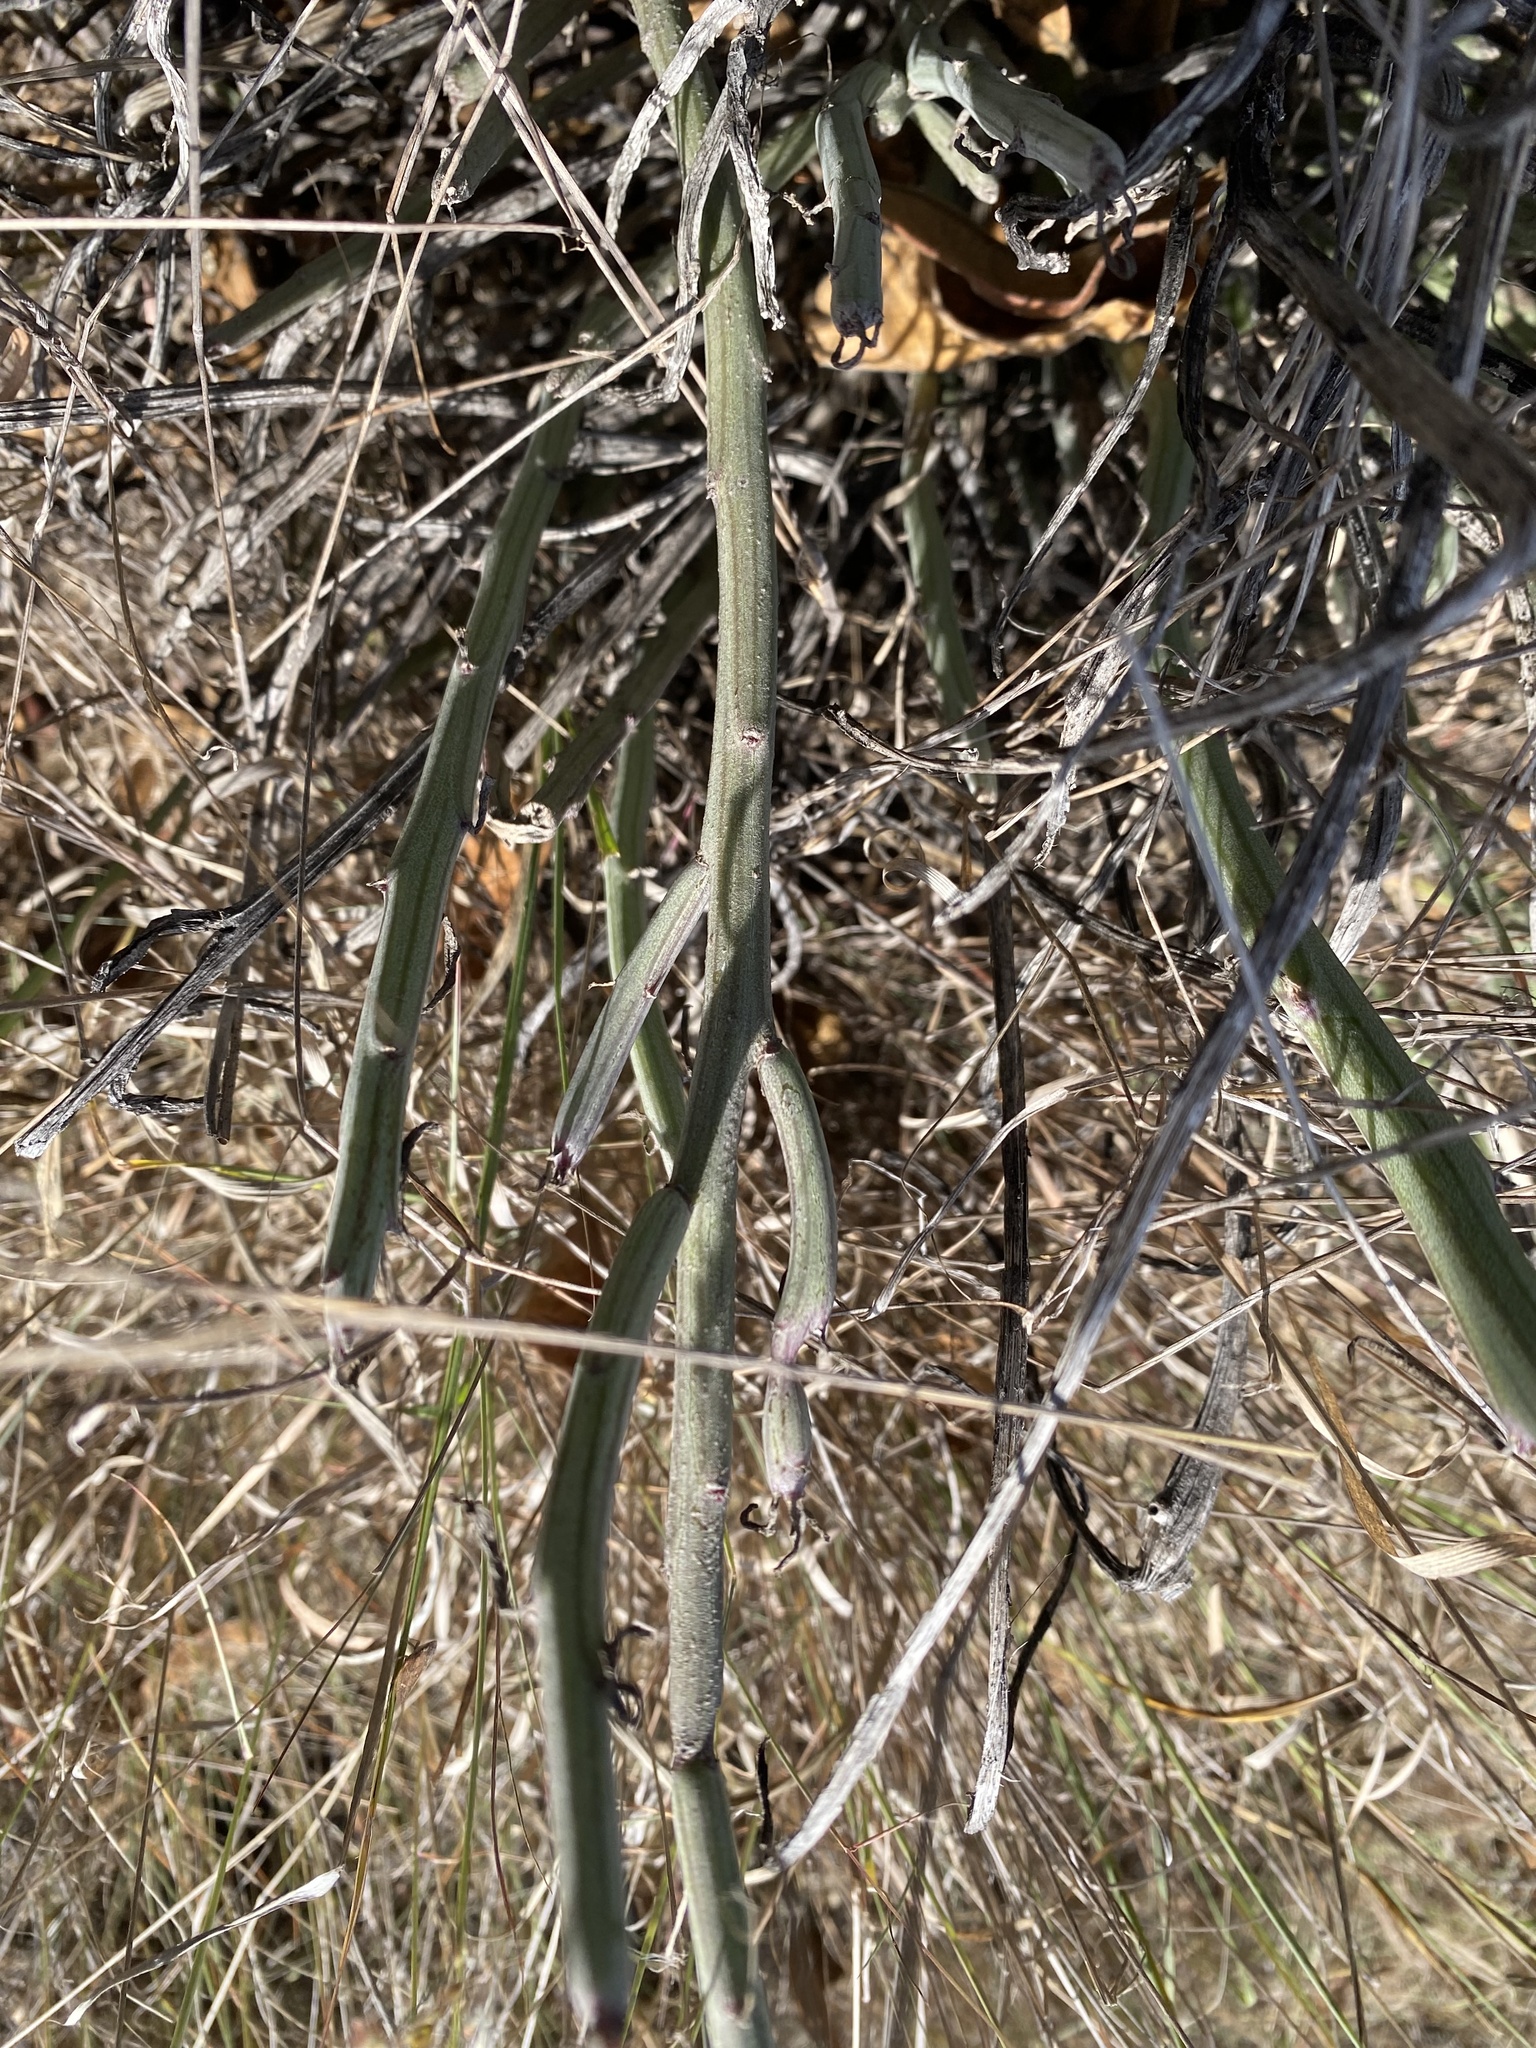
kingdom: Plantae
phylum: Tracheophyta
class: Magnoliopsida
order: Asterales
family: Asteraceae
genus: Curio
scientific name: Curio avasimontanus
